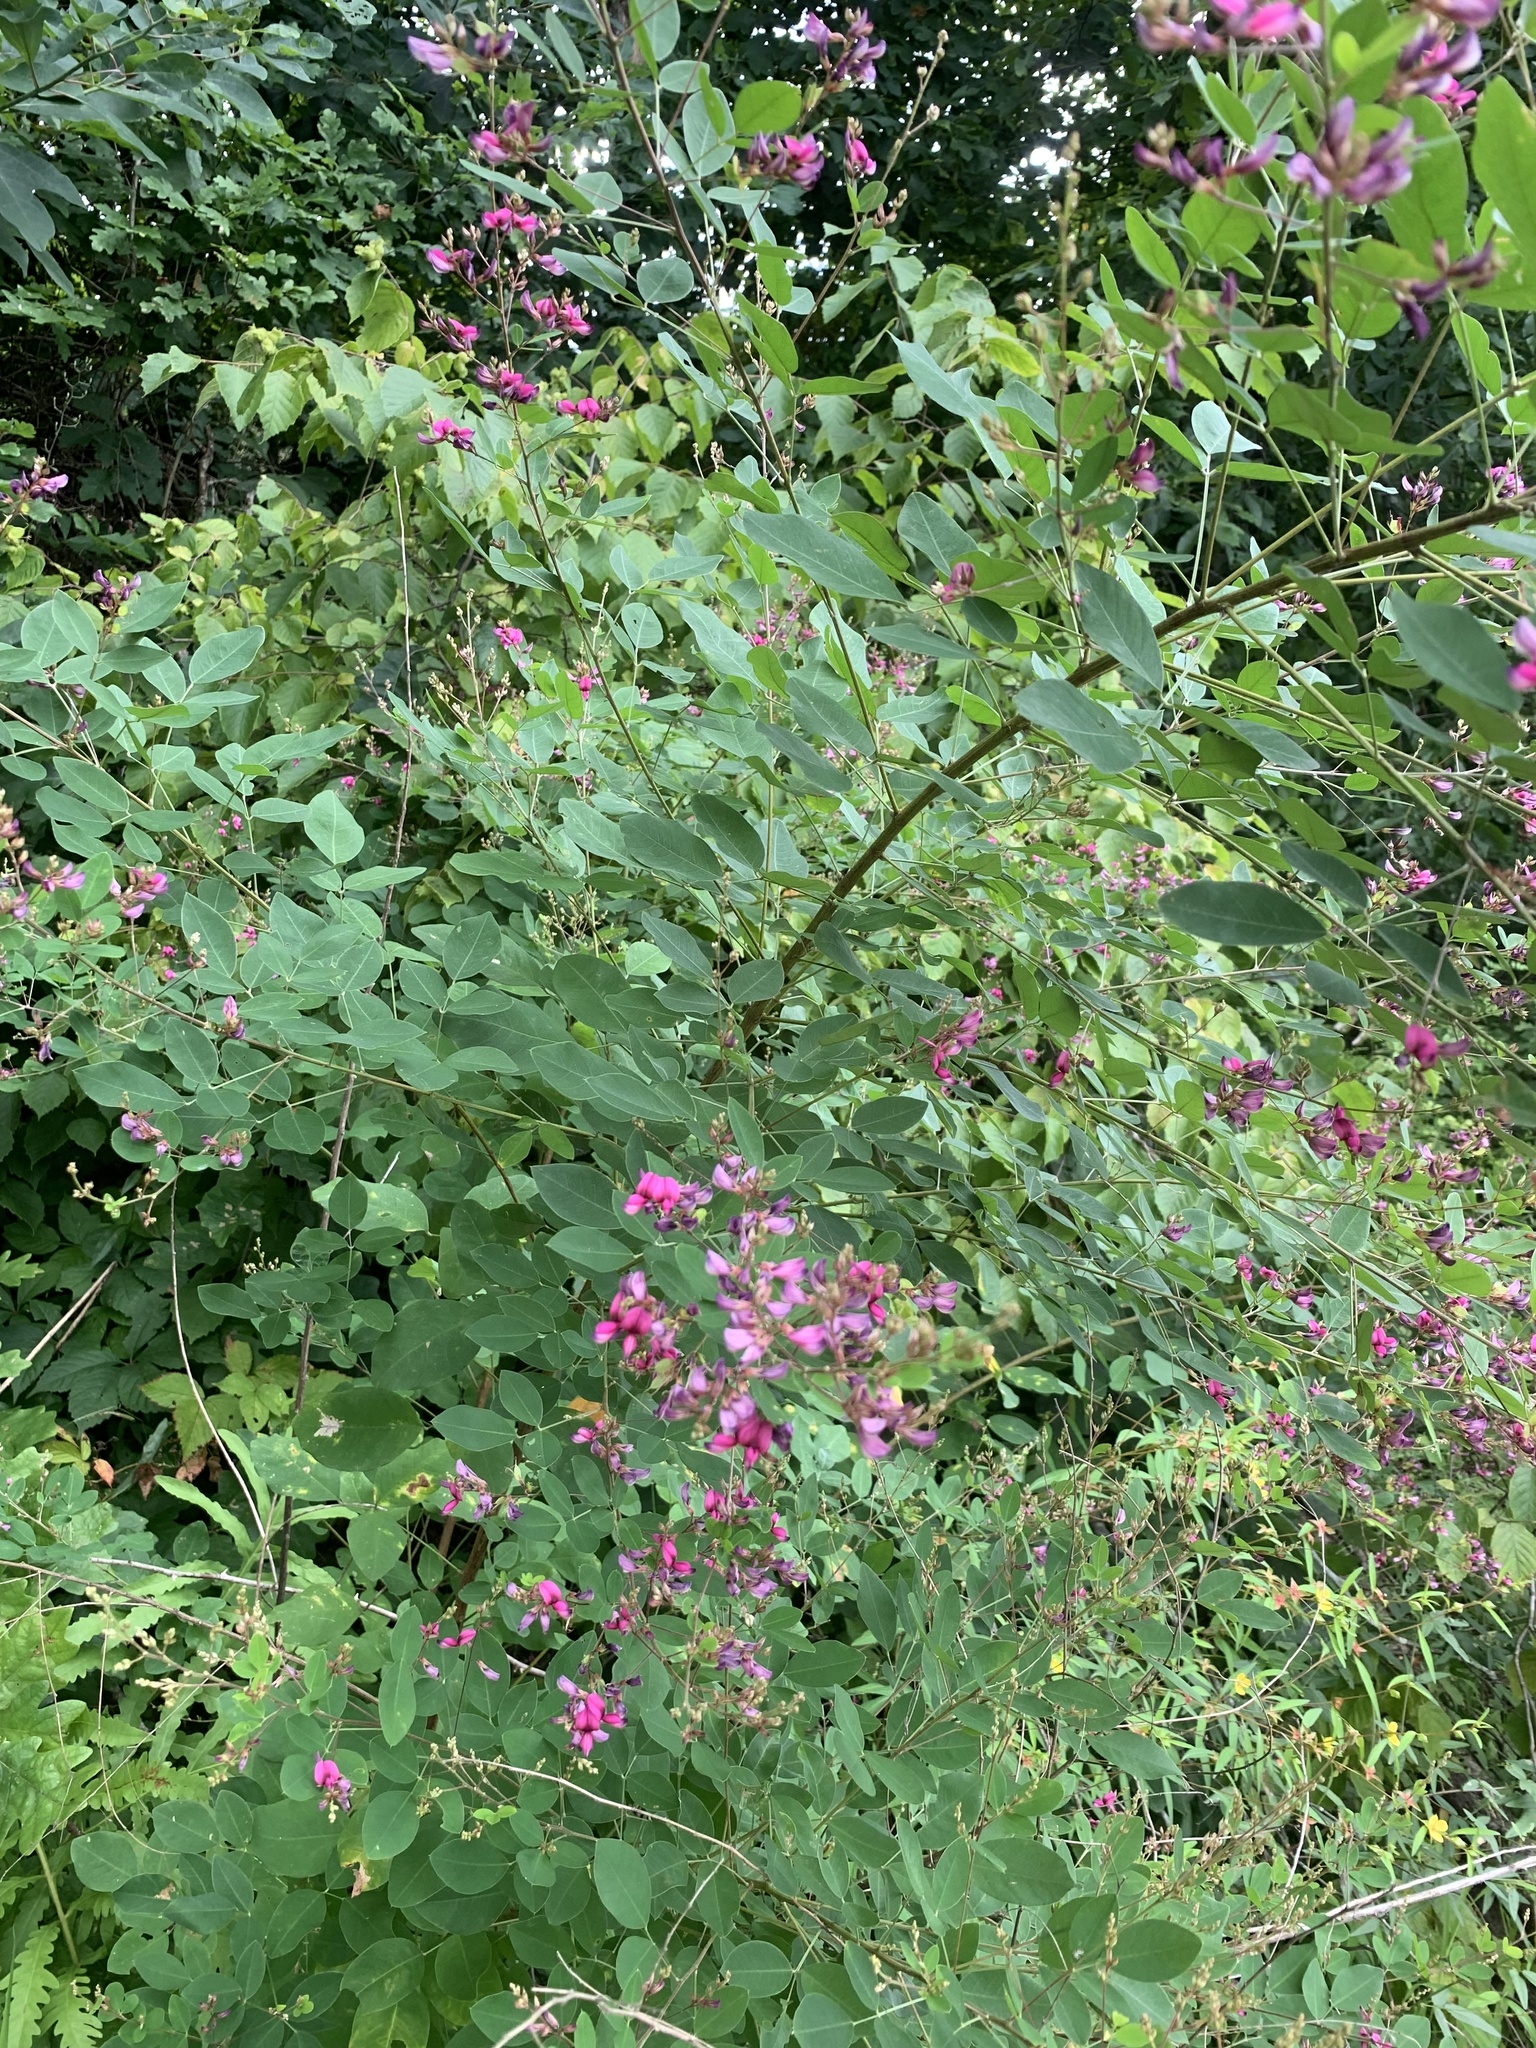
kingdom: Plantae
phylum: Tracheophyta
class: Magnoliopsida
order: Fabales
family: Fabaceae
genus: Lespedeza
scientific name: Lespedeza bicolor
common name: Shrub lespedeza
